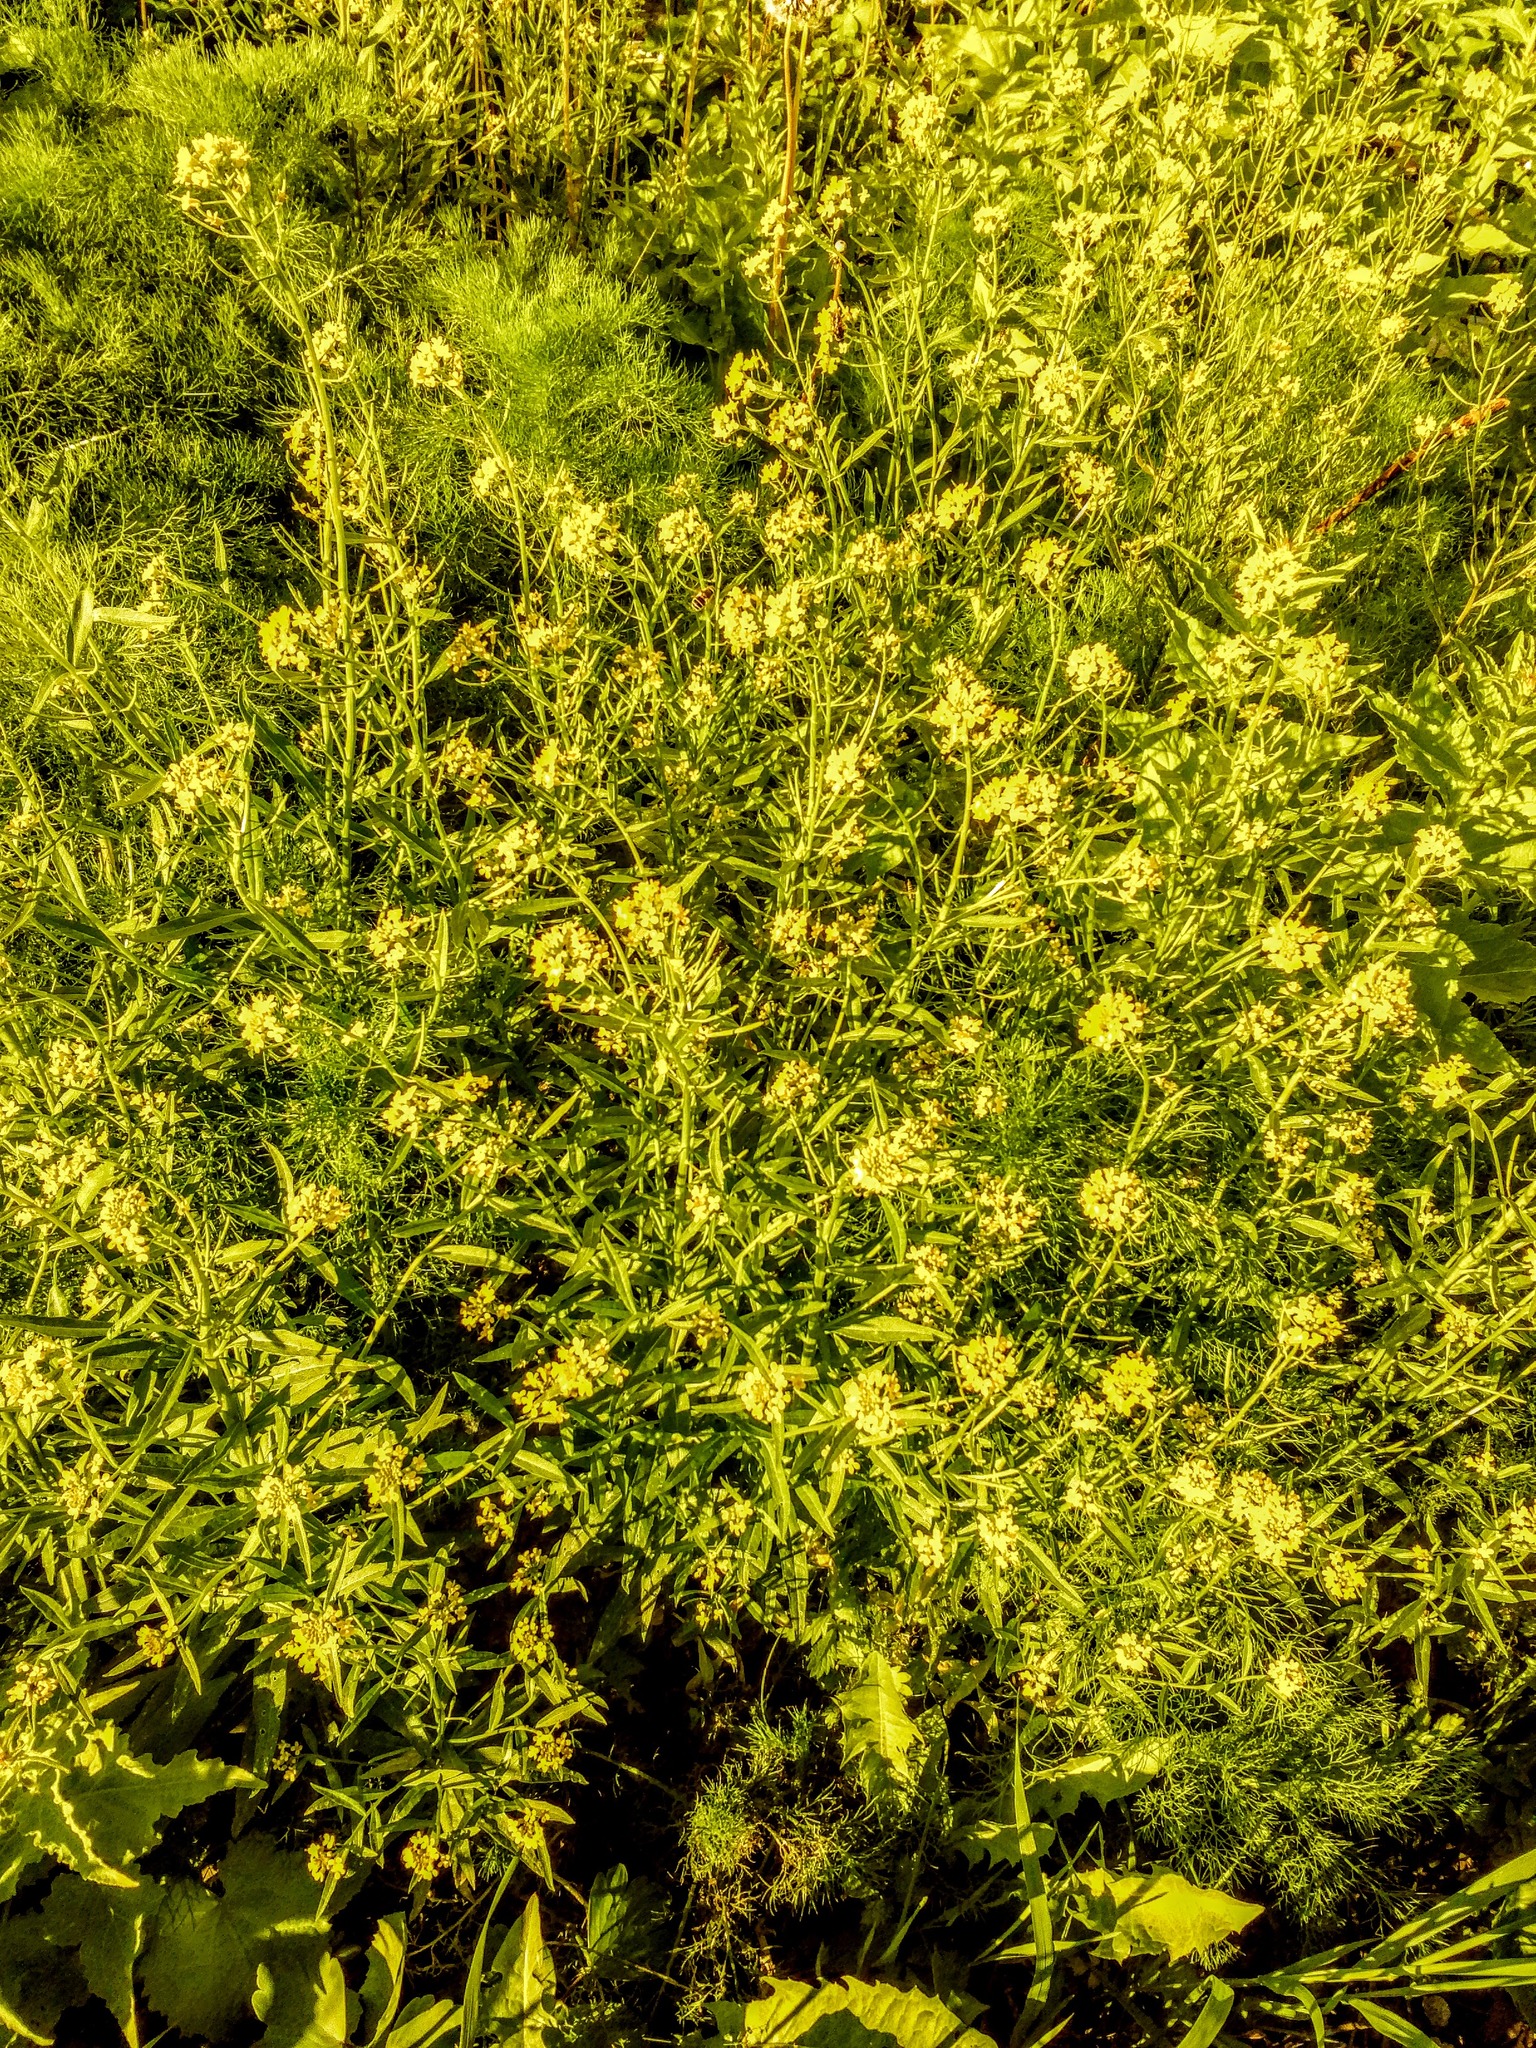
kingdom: Plantae
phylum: Tracheophyta
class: Magnoliopsida
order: Brassicales
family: Brassicaceae
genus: Erysimum
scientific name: Erysimum cheiranthoides
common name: Treacle mustard
